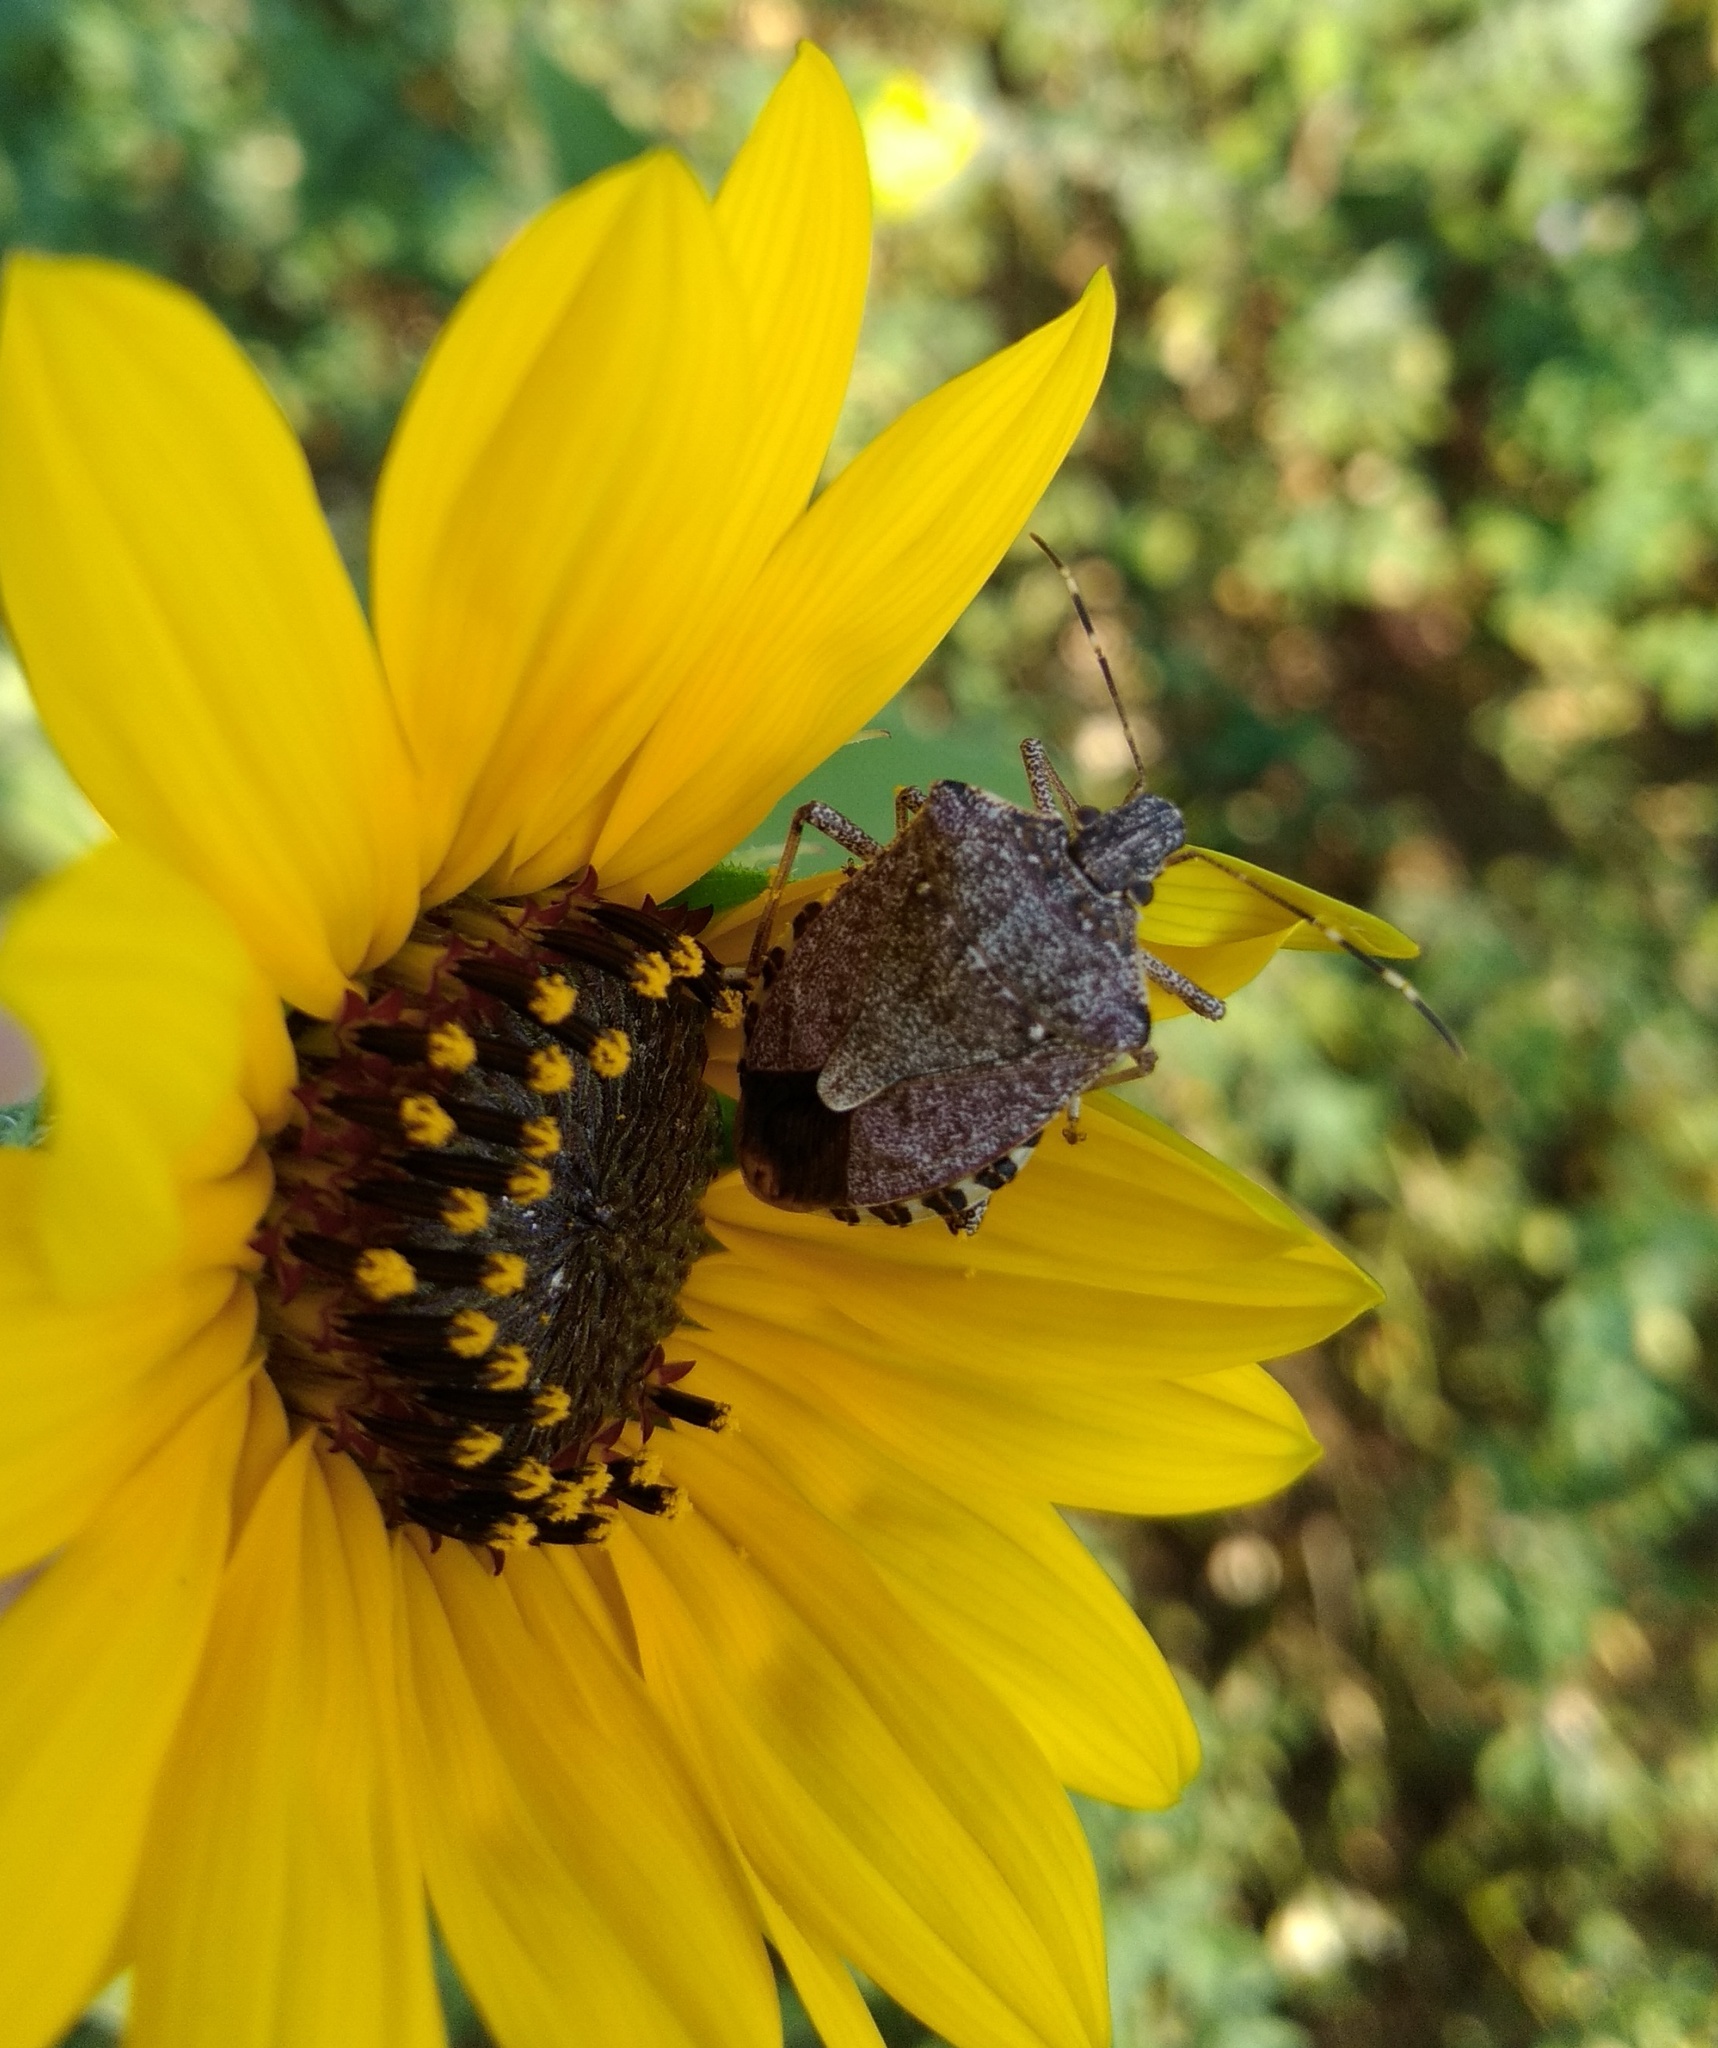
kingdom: Animalia
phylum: Arthropoda
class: Insecta
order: Hemiptera
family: Pentatomidae
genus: Halyomorpha
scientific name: Halyomorpha halys
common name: Brown marmorated stink bug
